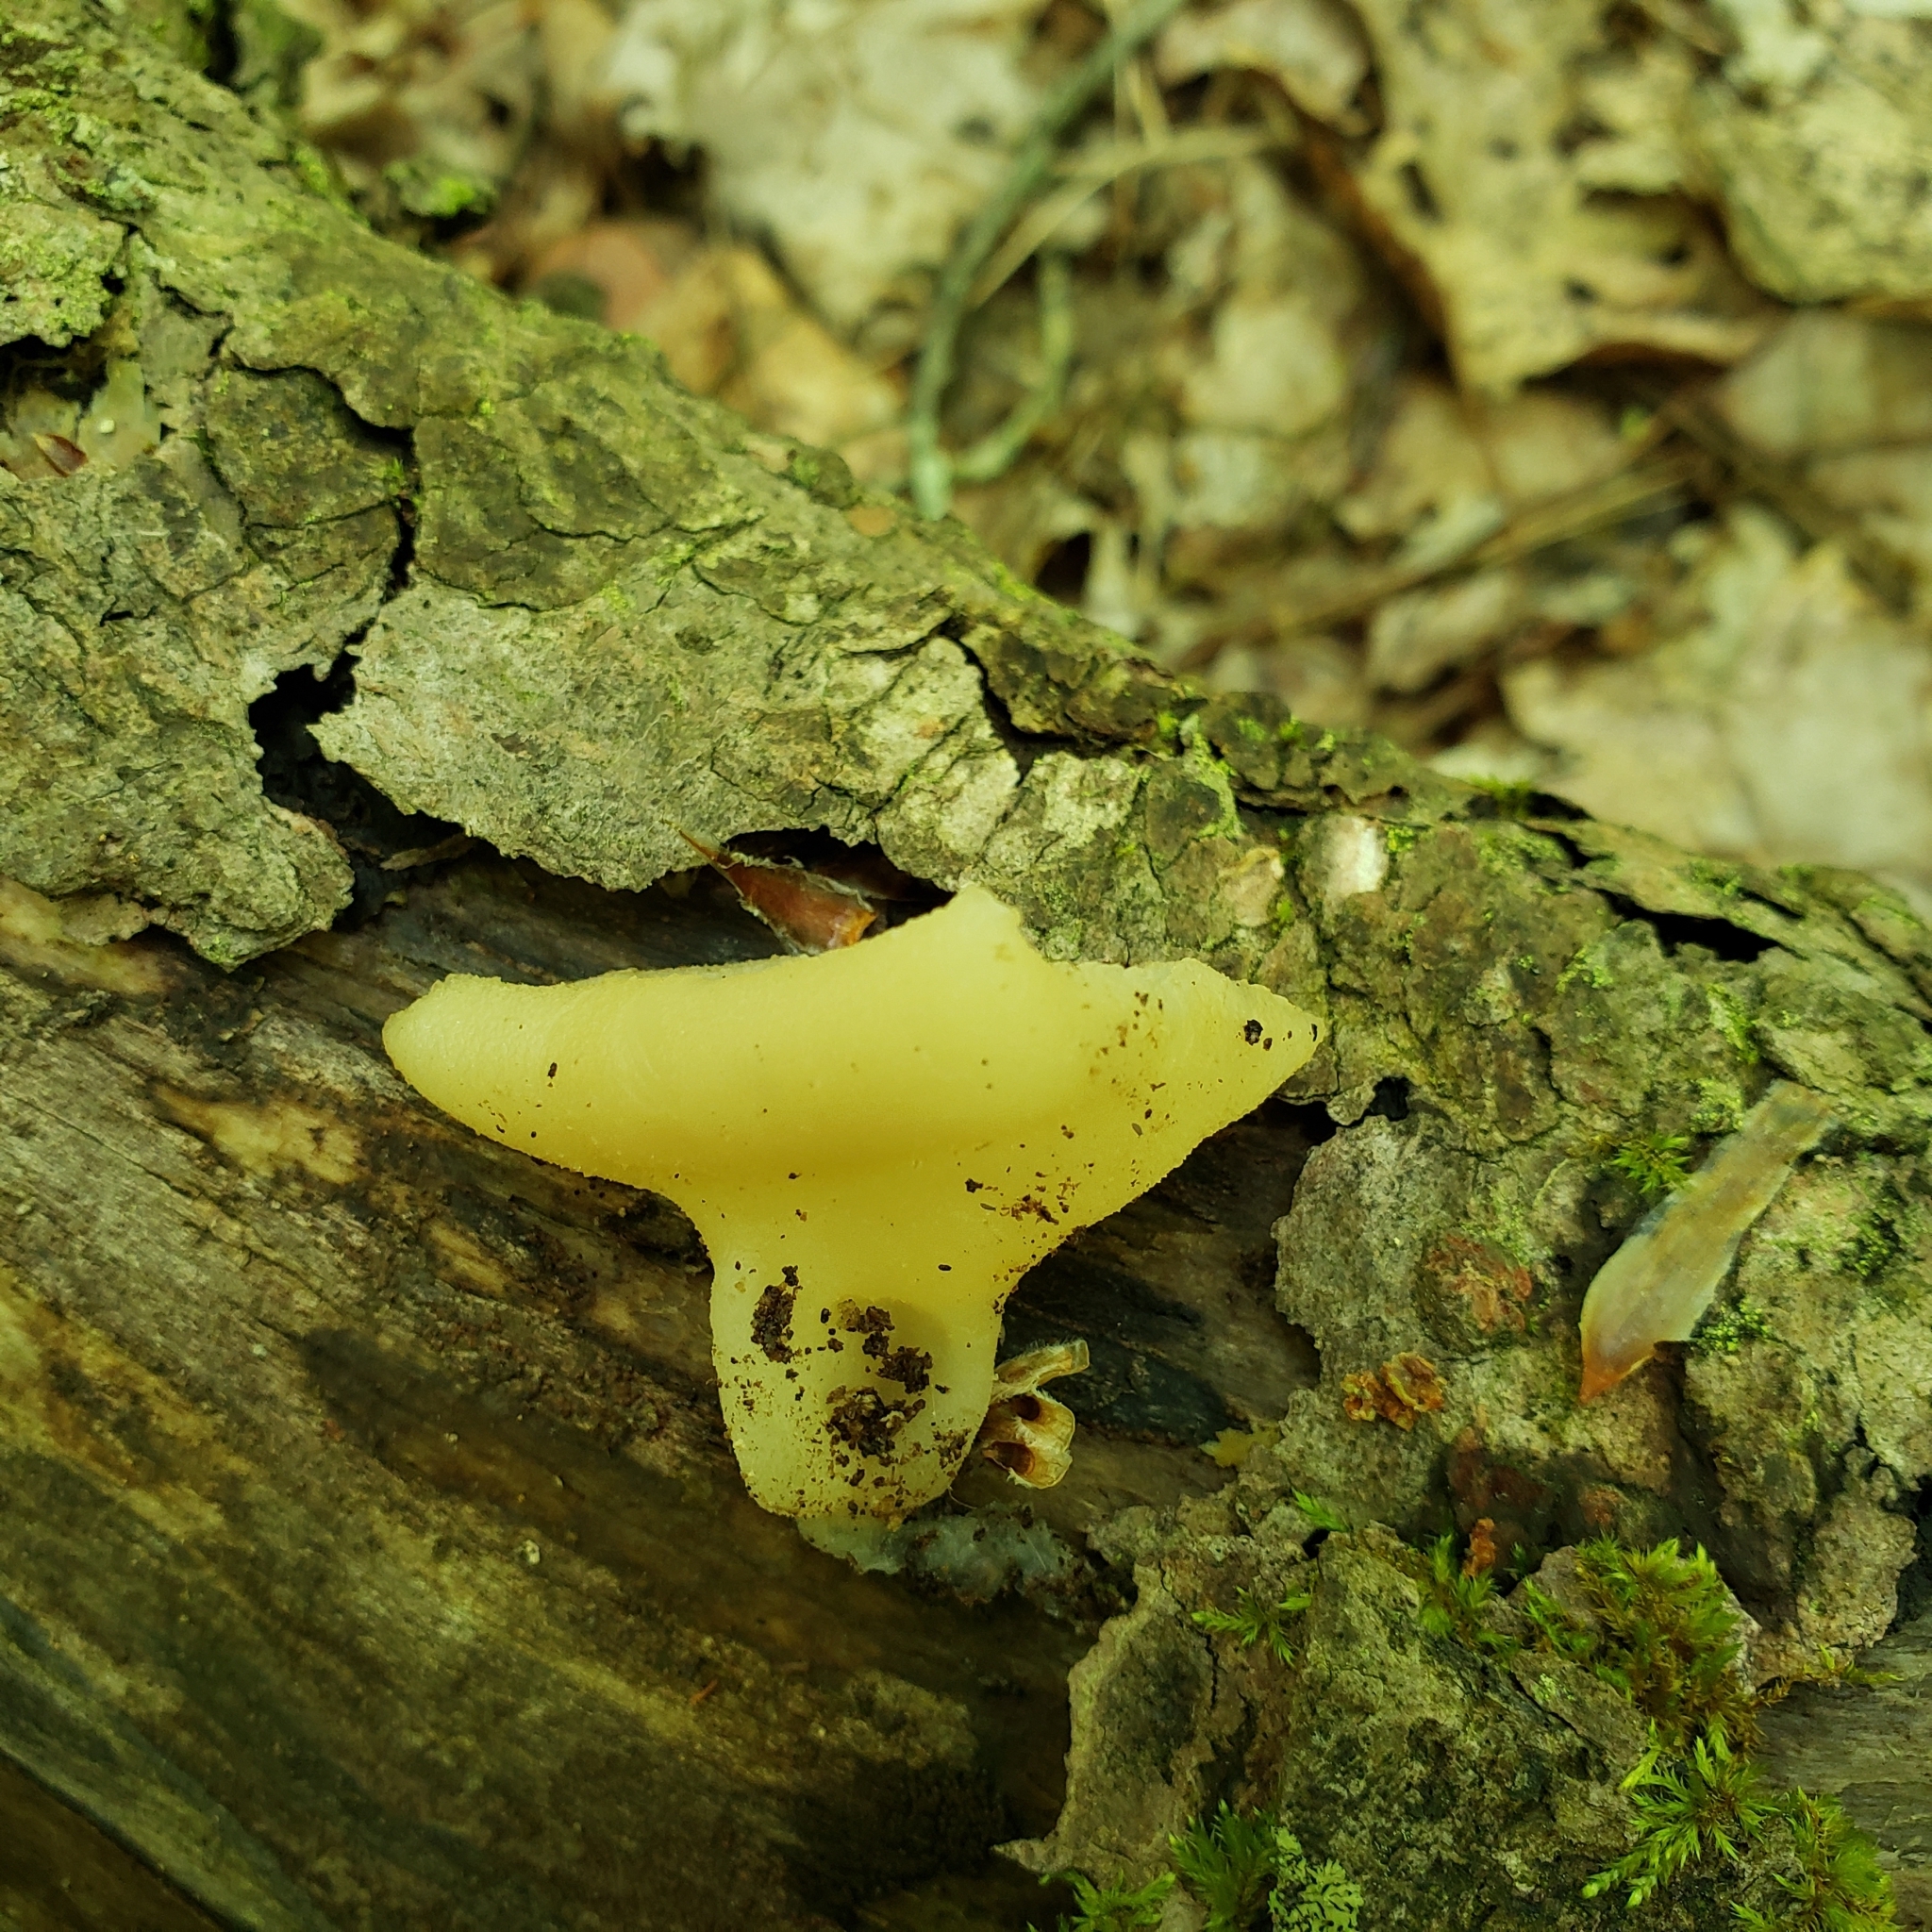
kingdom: Fungi
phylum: Ascomycota
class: Pezizomycetes
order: Pezizales
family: Pezizaceae
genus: Peziza
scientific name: Peziza varia
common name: Layered cup
